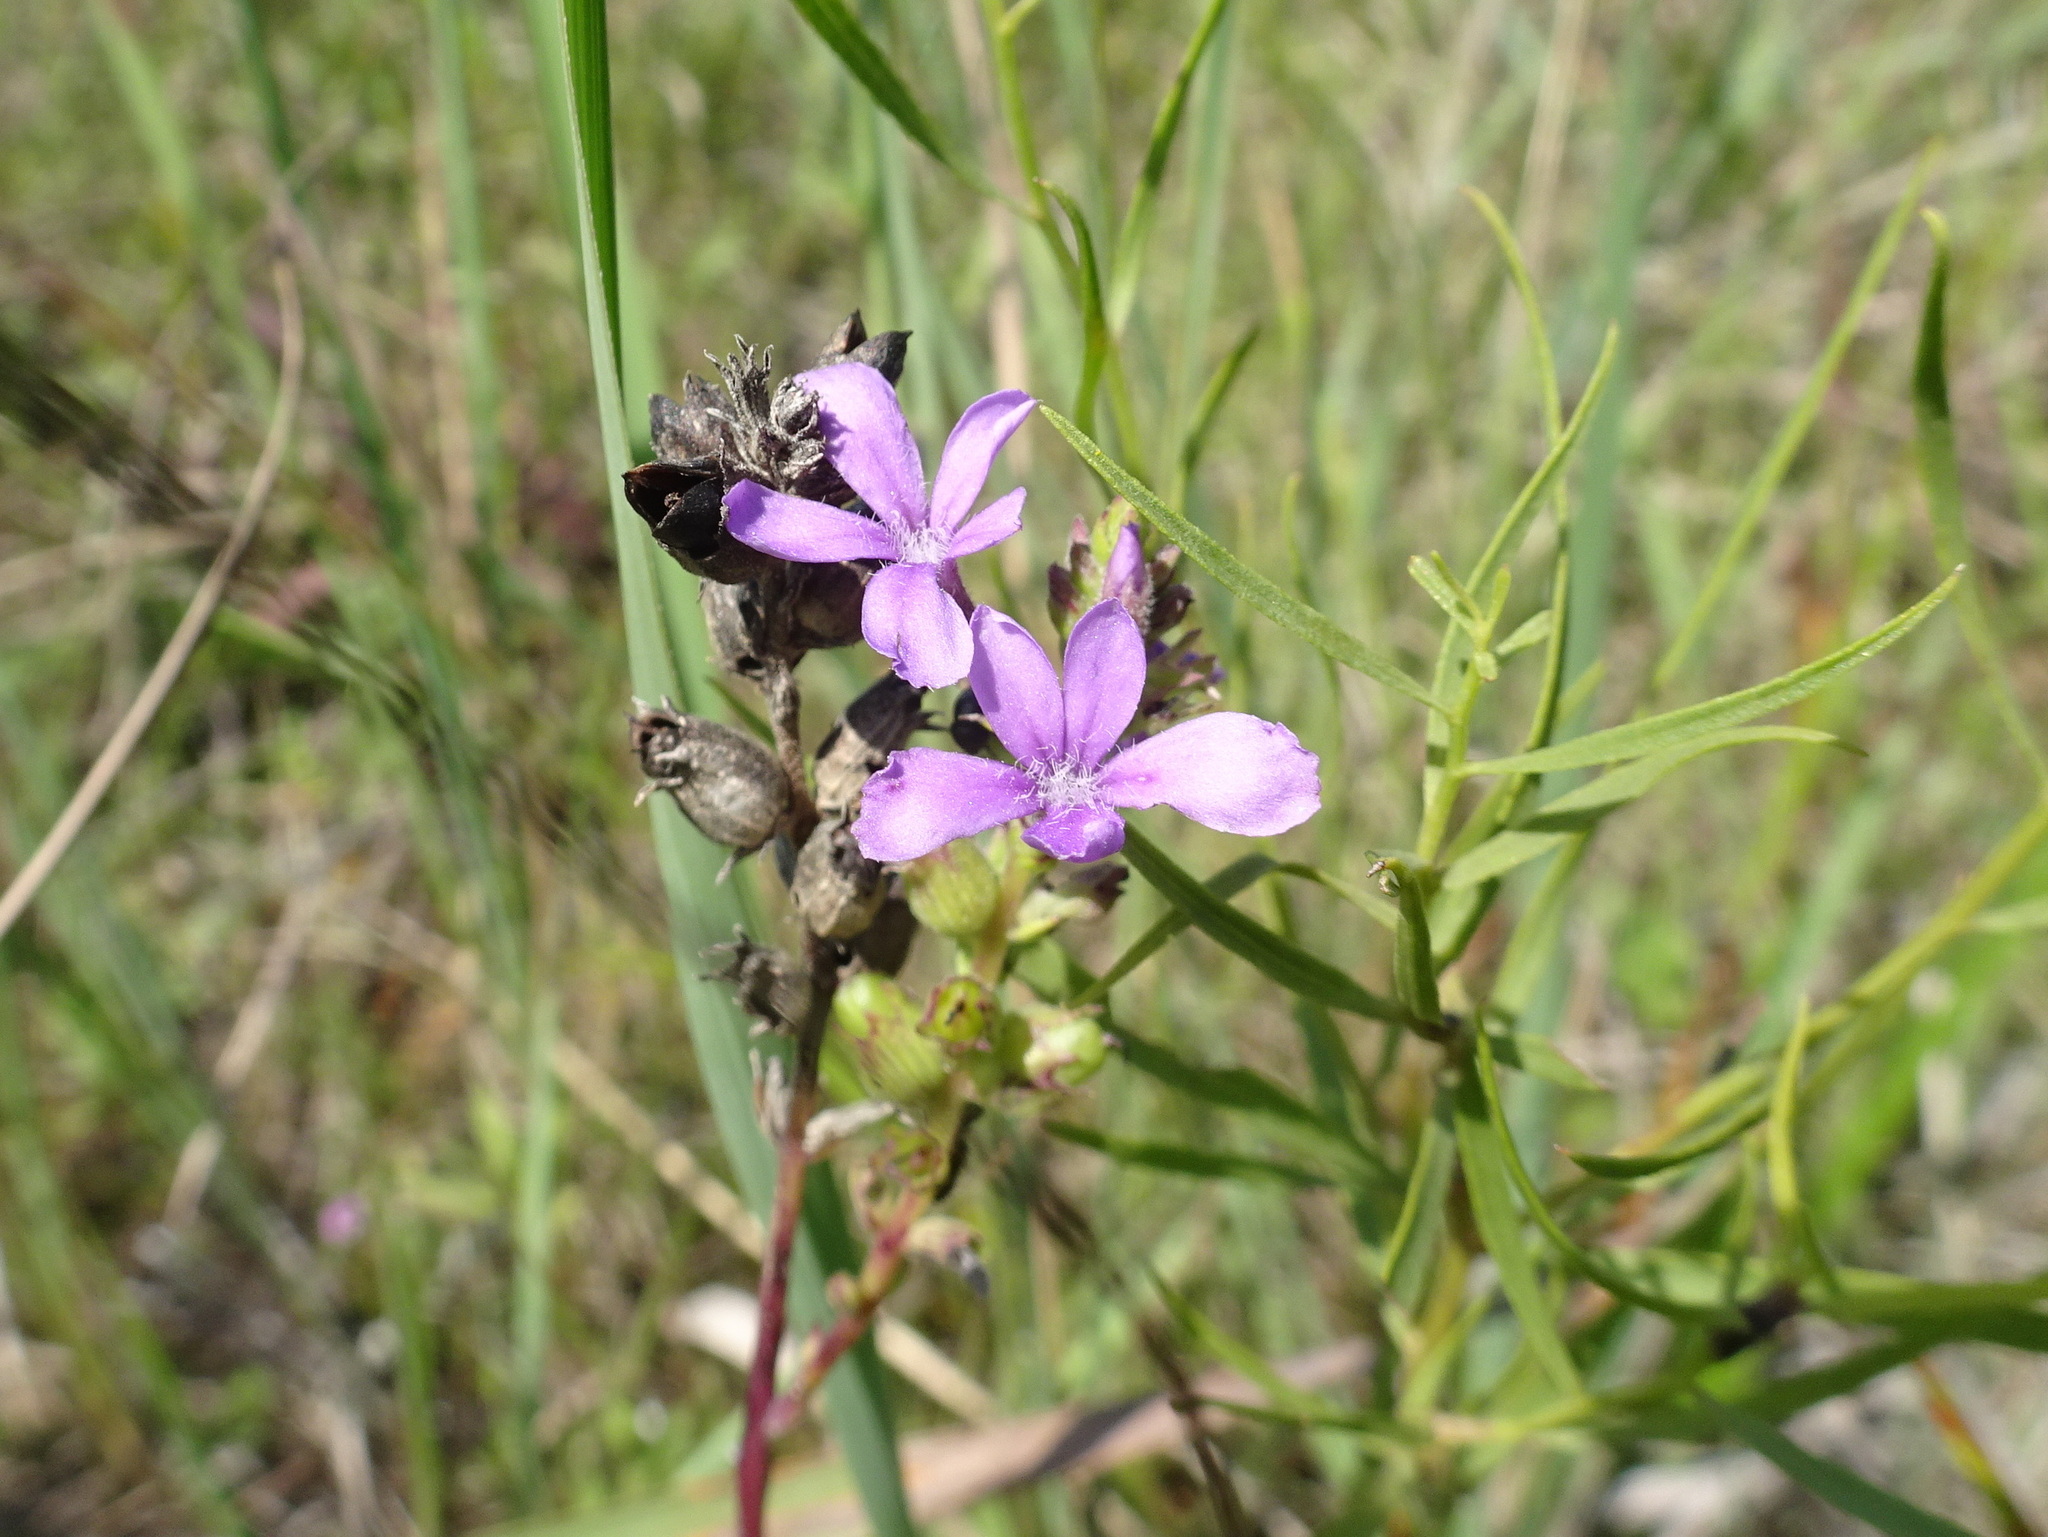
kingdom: Plantae
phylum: Tracheophyta
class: Magnoliopsida
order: Lamiales
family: Orobanchaceae
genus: Buchnera
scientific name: Buchnera americana
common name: American bluehearts
